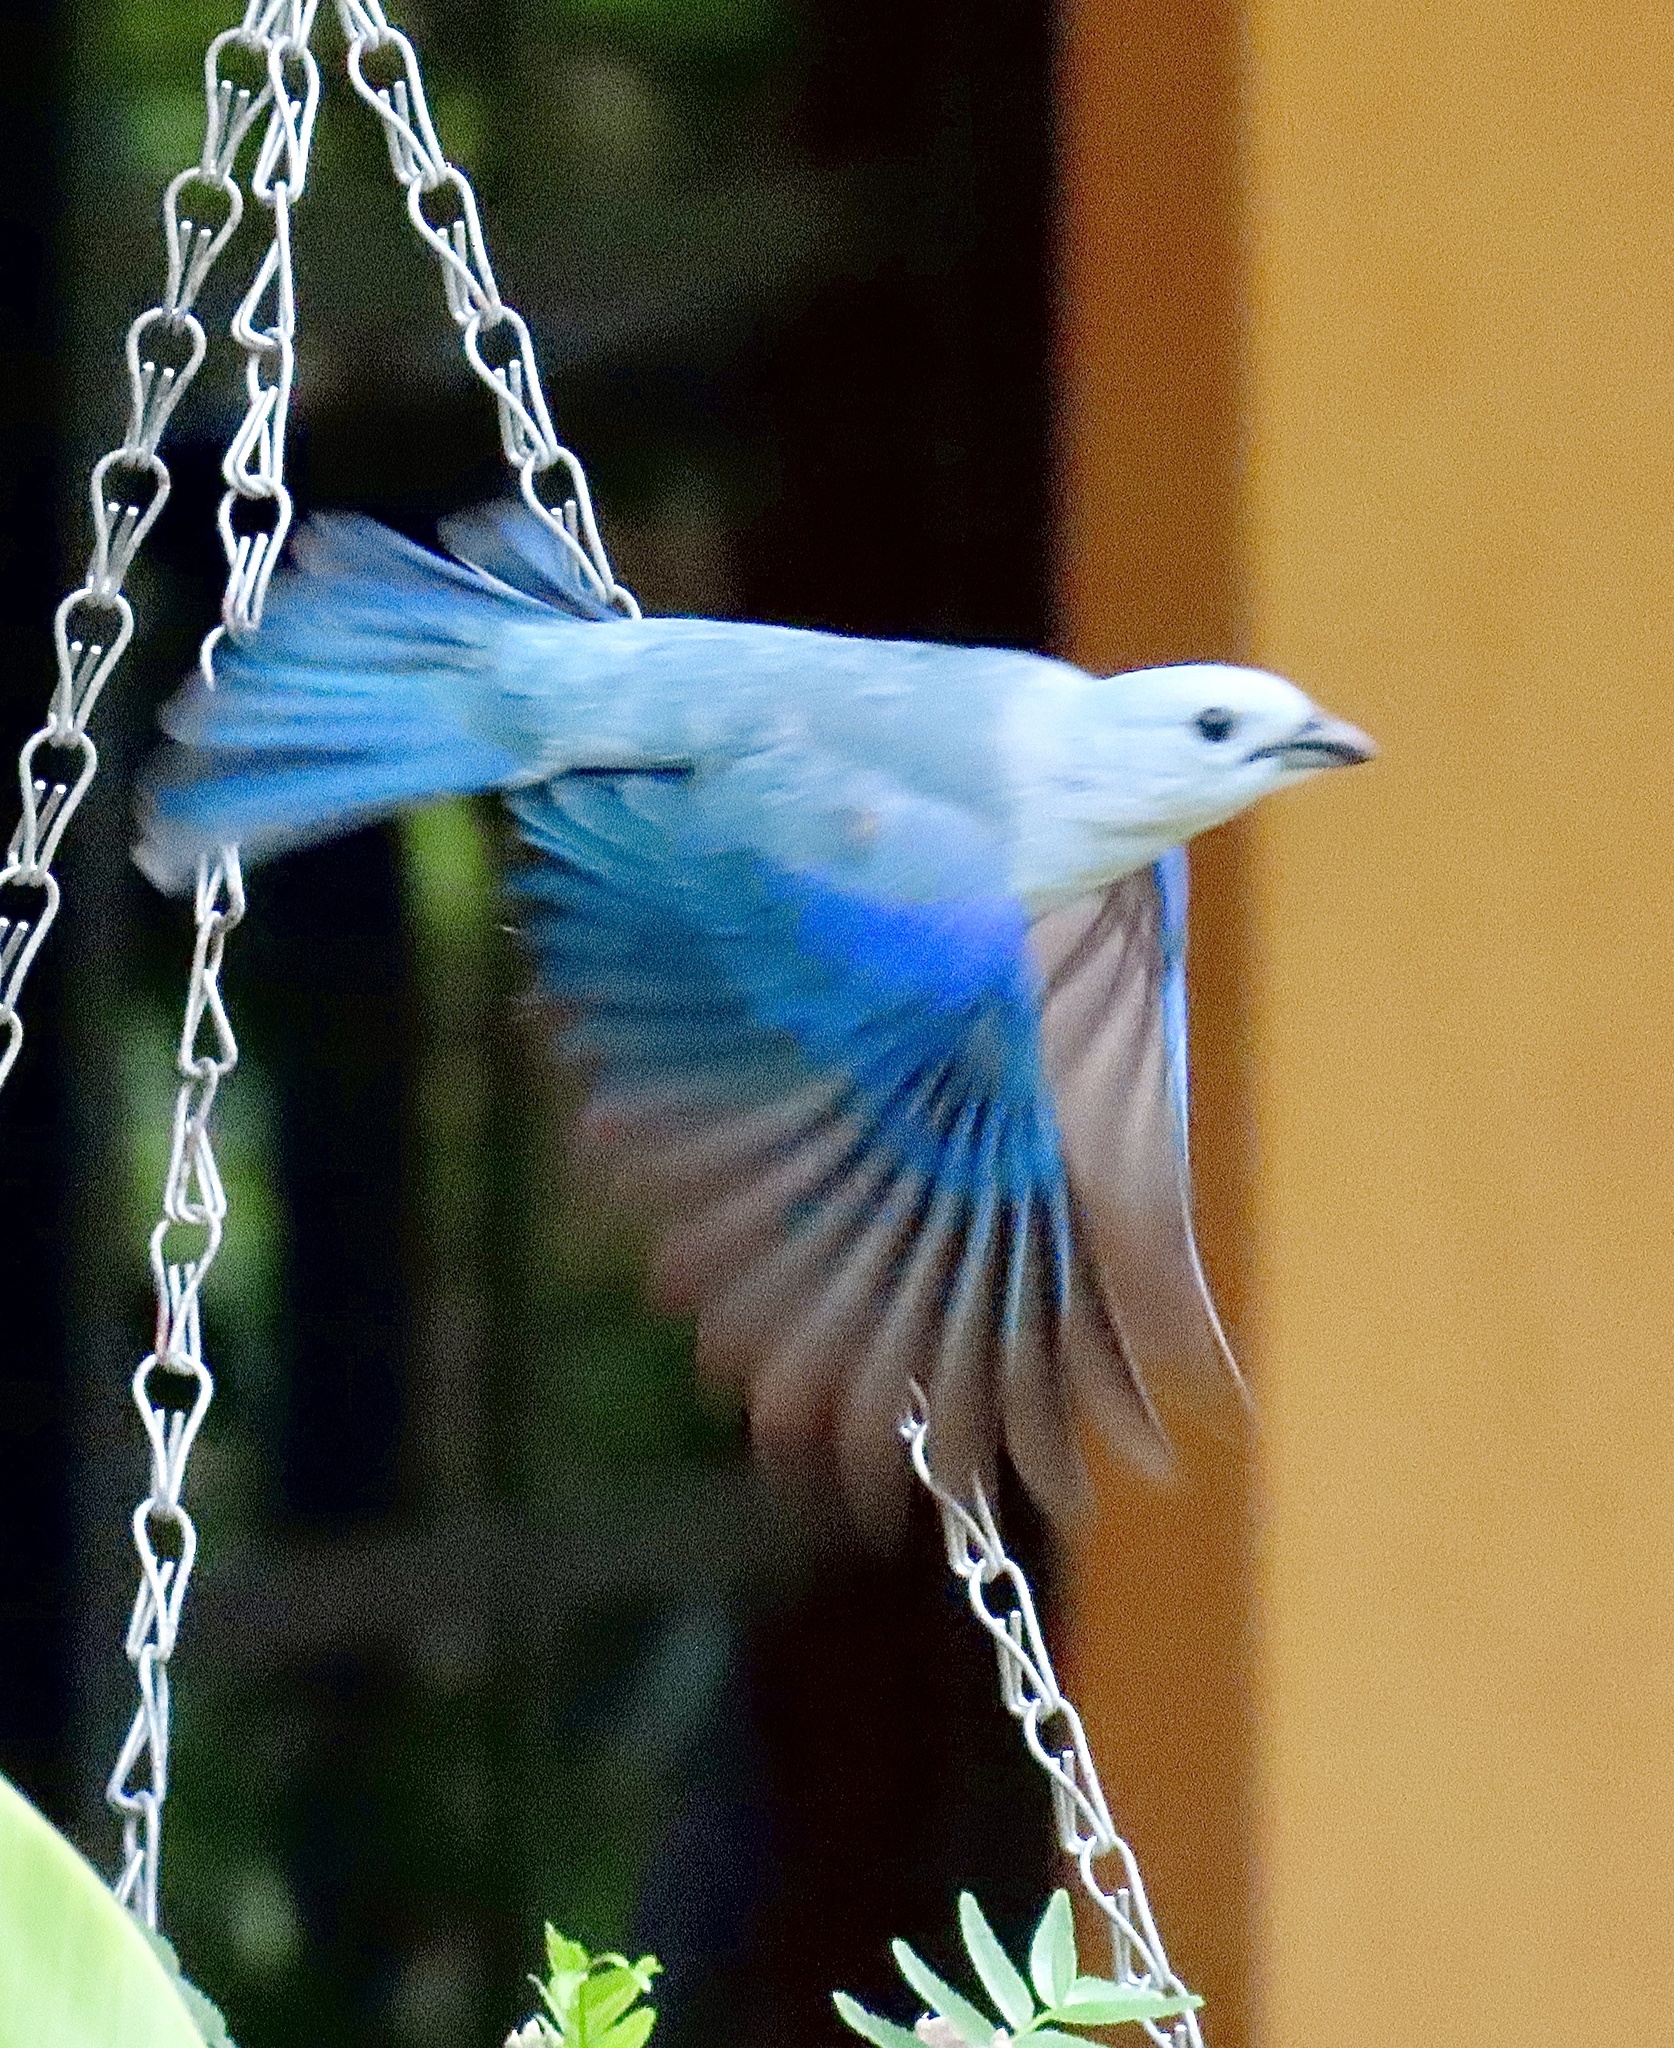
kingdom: Animalia
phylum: Chordata
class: Aves
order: Passeriformes
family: Thraupidae
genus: Thraupis
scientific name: Thraupis episcopus
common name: Blue-grey tanager
